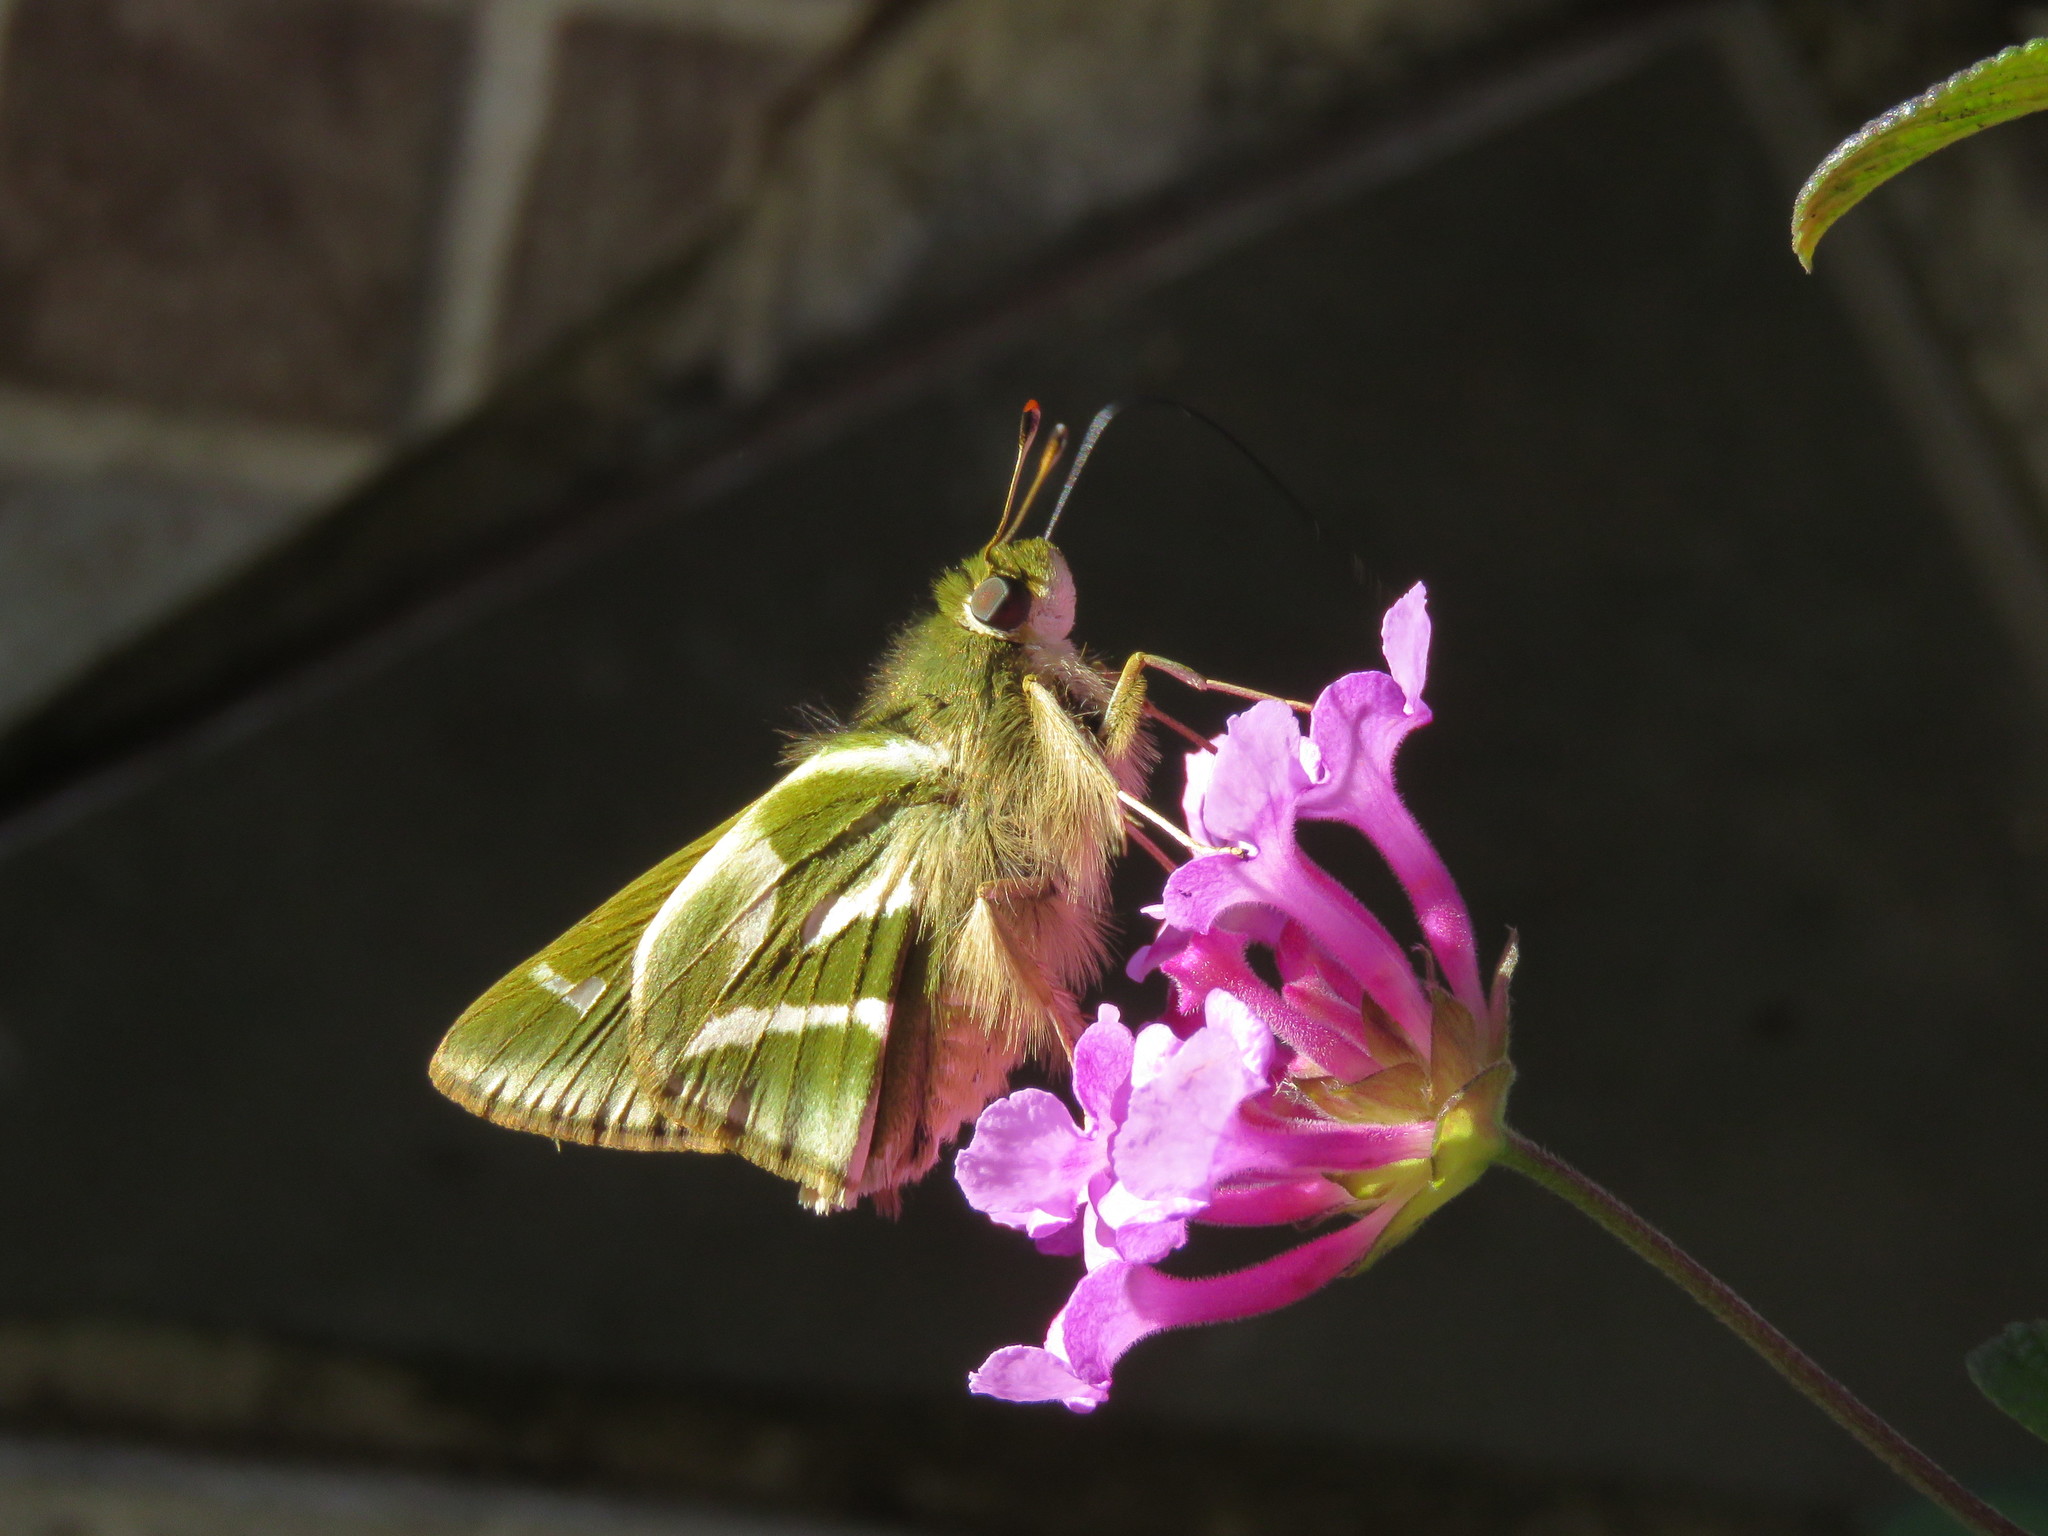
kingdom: Animalia
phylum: Arthropoda
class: Insecta
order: Lepidoptera
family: Hesperiidae
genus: Serdis
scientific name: Serdis venezuelae
